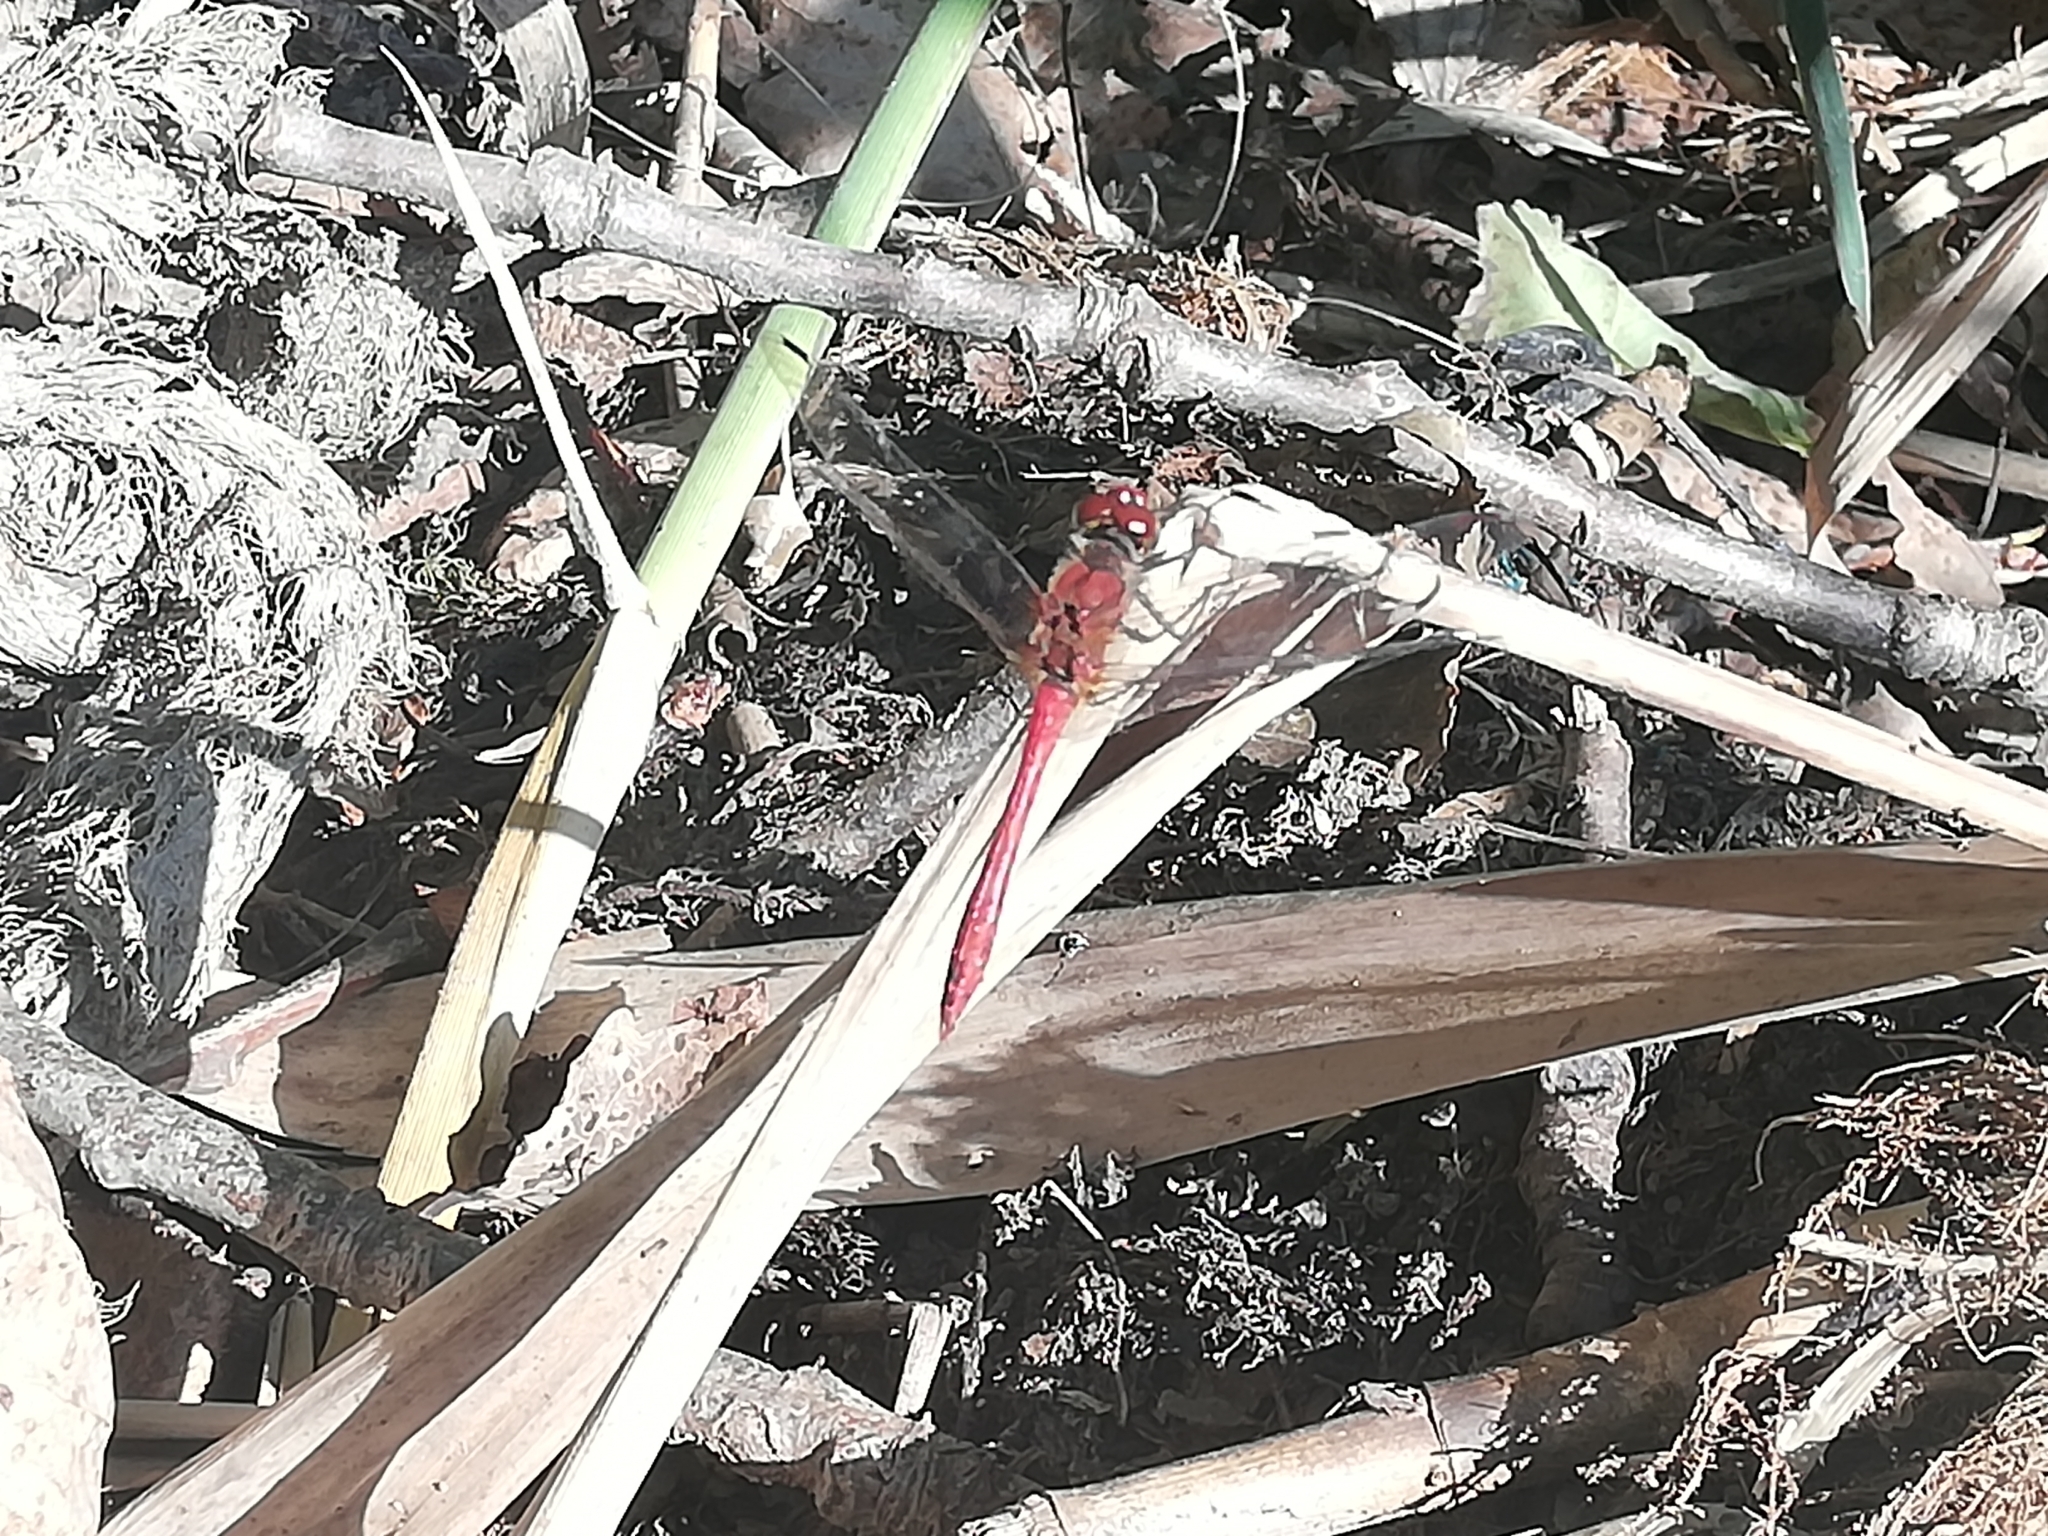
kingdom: Animalia
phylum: Arthropoda
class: Insecta
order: Odonata
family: Libellulidae
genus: Sympetrum
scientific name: Sympetrum sanguineum
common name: Ruddy darter
